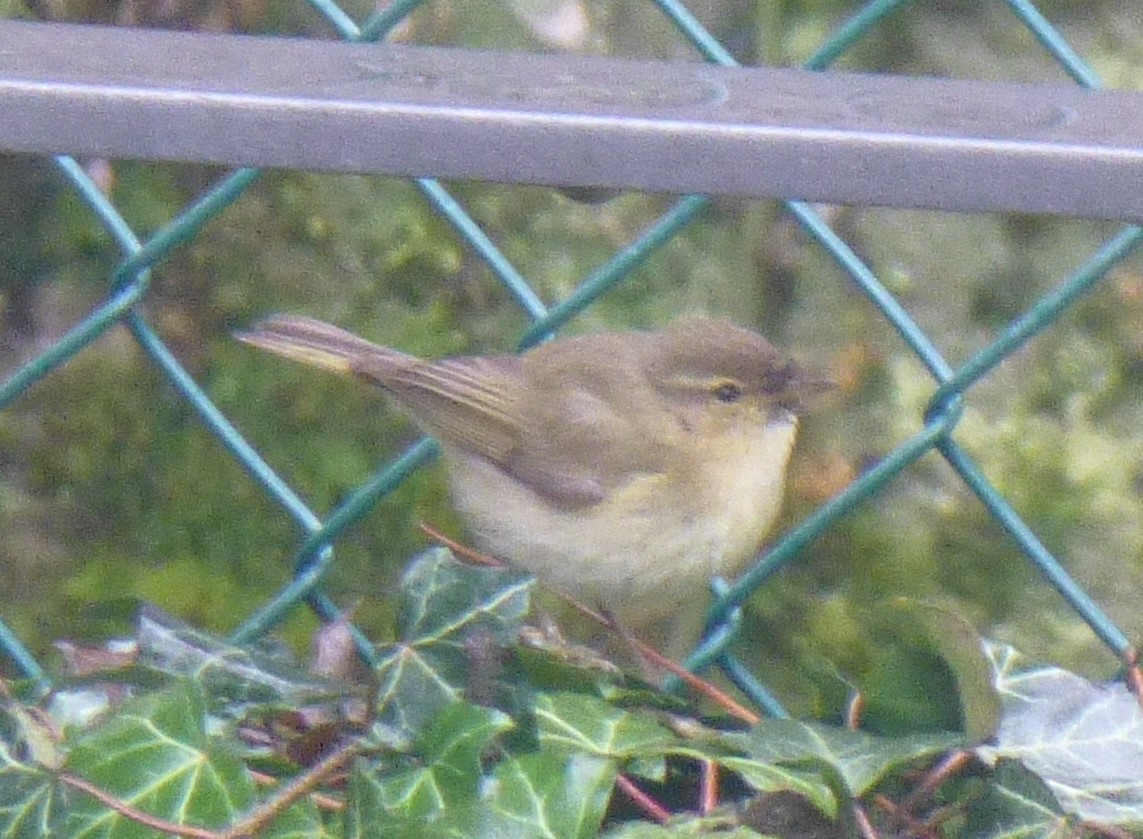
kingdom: Animalia
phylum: Chordata
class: Aves
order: Passeriformes
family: Phylloscopidae
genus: Phylloscopus
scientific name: Phylloscopus collybita
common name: Common chiffchaff
